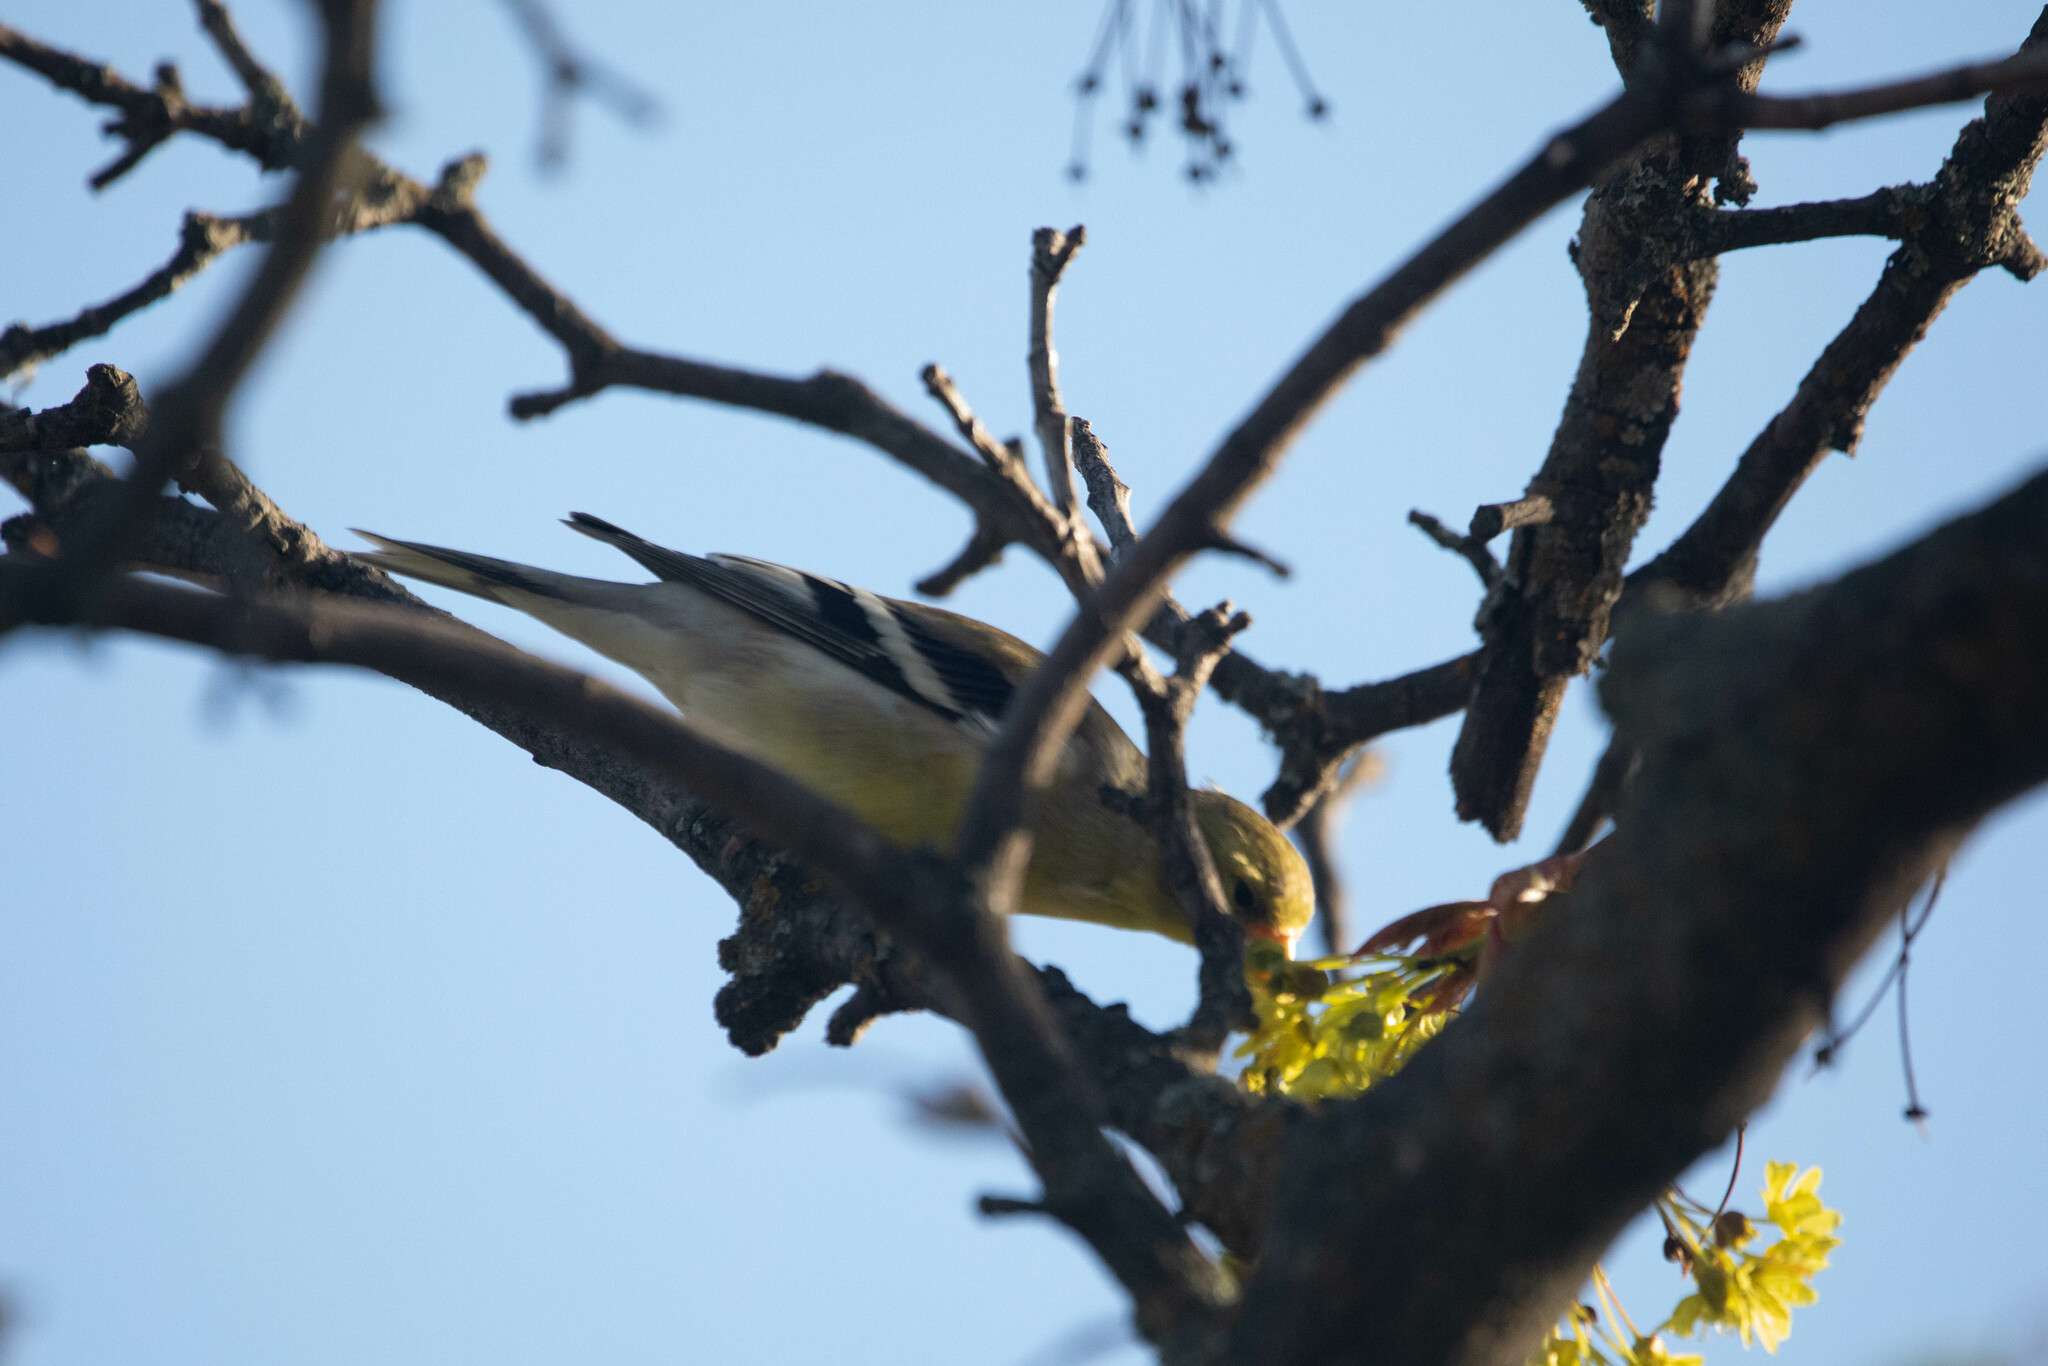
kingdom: Animalia
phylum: Chordata
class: Aves
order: Passeriformes
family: Fringillidae
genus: Spinus
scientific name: Spinus tristis
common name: American goldfinch
